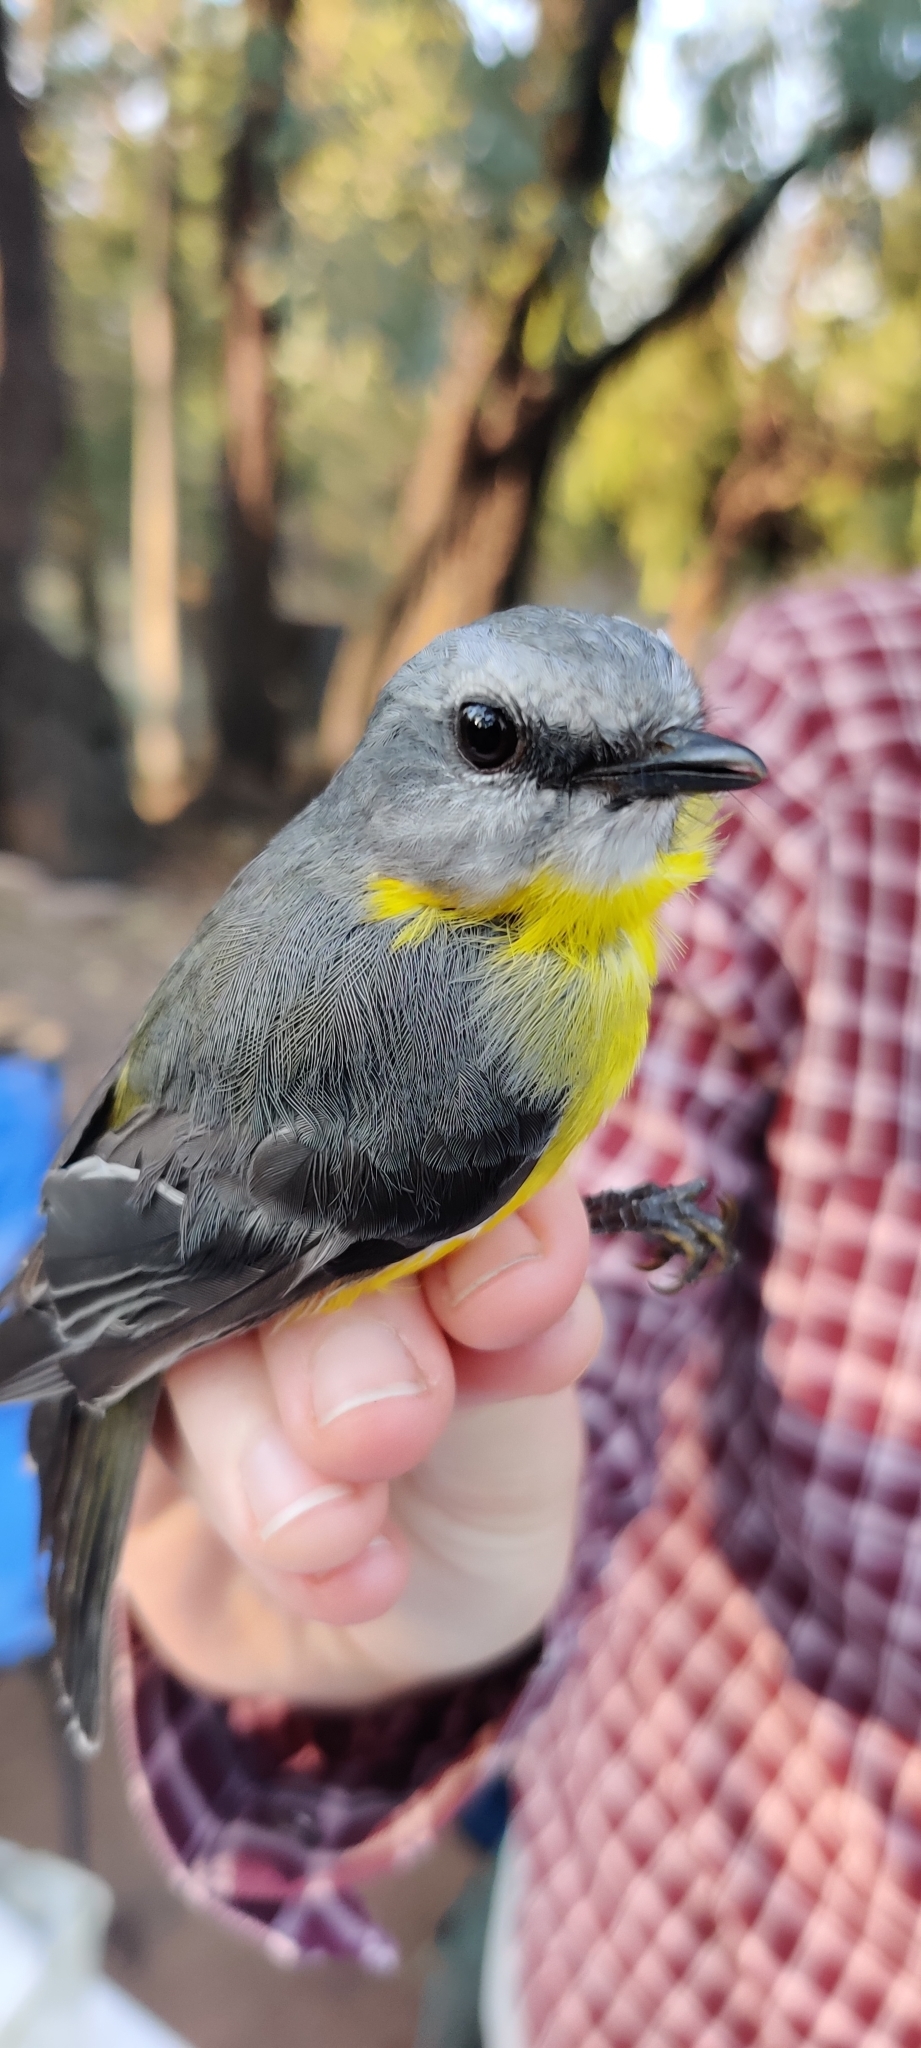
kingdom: Animalia
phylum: Chordata
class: Aves
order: Passeriformes
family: Petroicidae
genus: Eopsaltria
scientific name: Eopsaltria australis
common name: Eastern yellow robin
